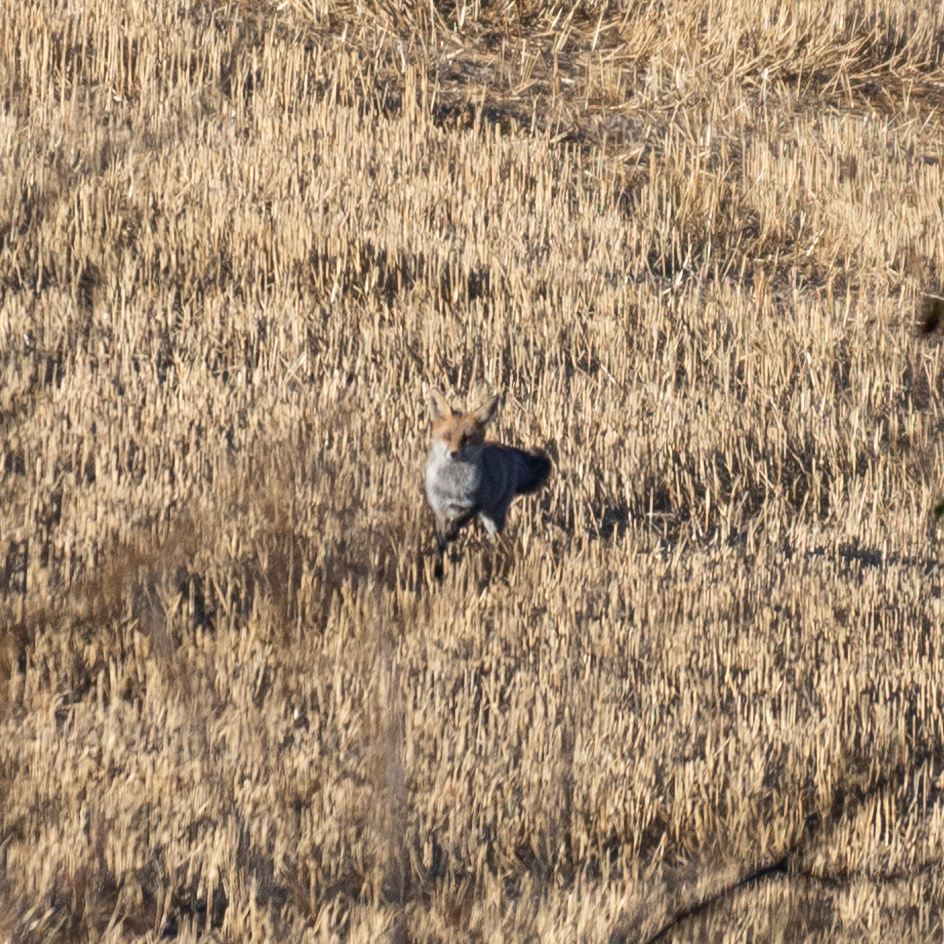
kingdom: Animalia
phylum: Chordata
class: Mammalia
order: Carnivora
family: Canidae
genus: Vulpes
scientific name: Vulpes vulpes
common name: Red fox
